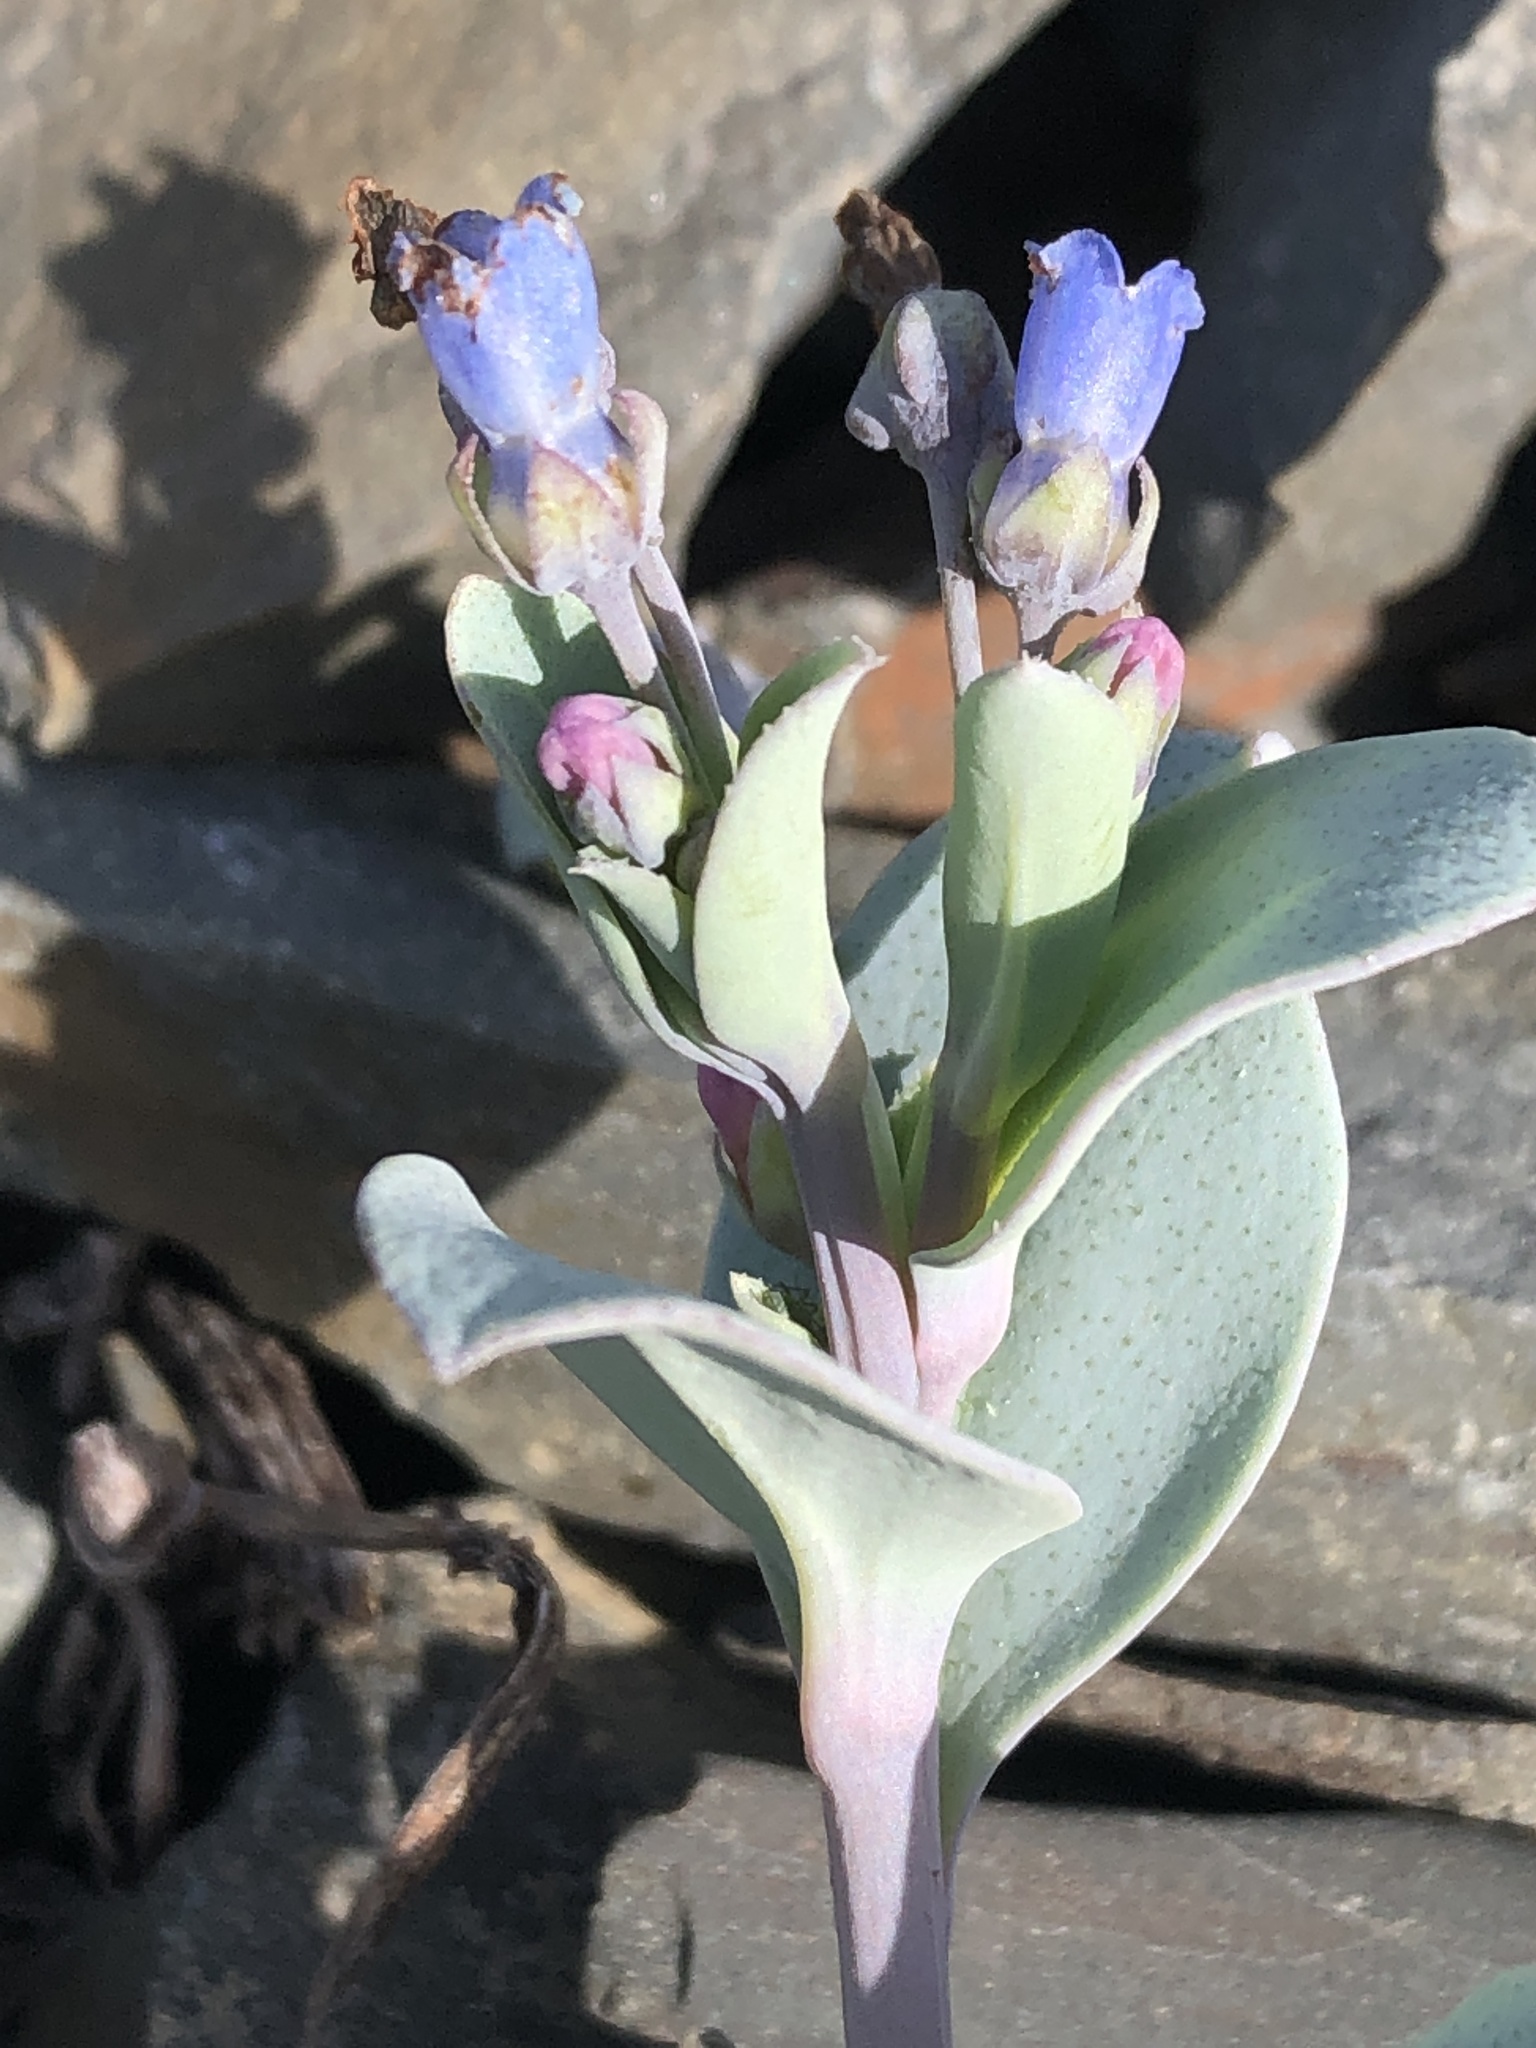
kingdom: Plantae
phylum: Tracheophyta
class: Magnoliopsida
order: Boraginales
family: Boraginaceae
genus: Mertensia
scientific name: Mertensia maritima
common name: Oysterplant
